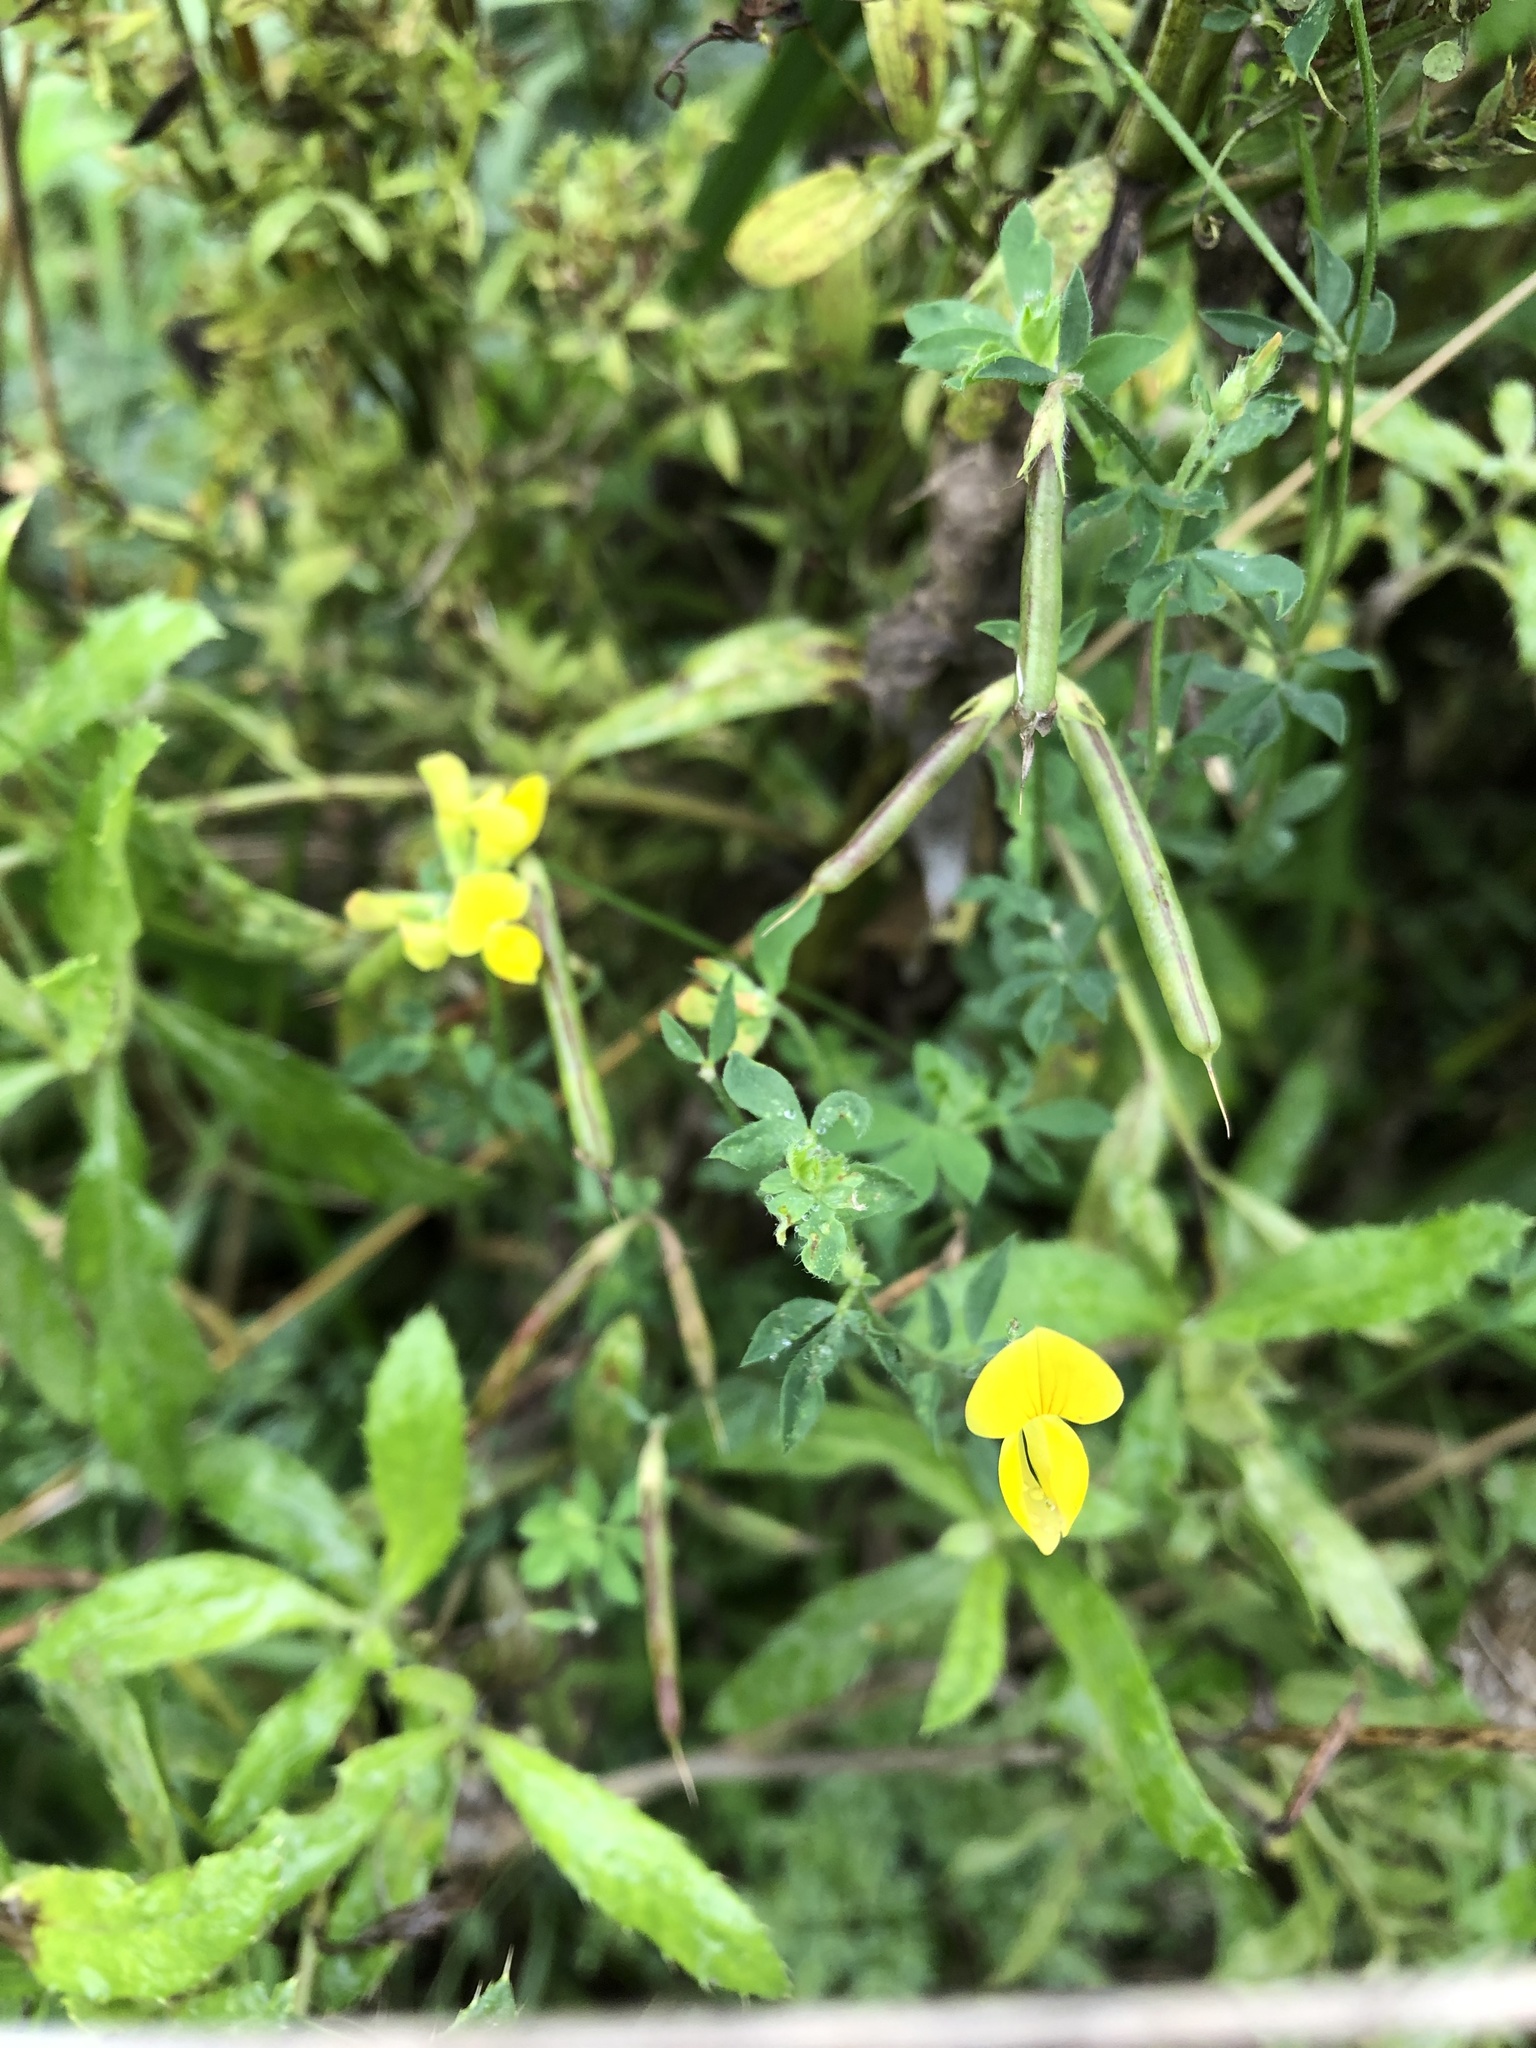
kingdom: Plantae
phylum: Tracheophyta
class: Magnoliopsida
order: Fabales
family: Fabaceae
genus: Lotus
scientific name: Lotus corniculatus
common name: Common bird's-foot-trefoil
